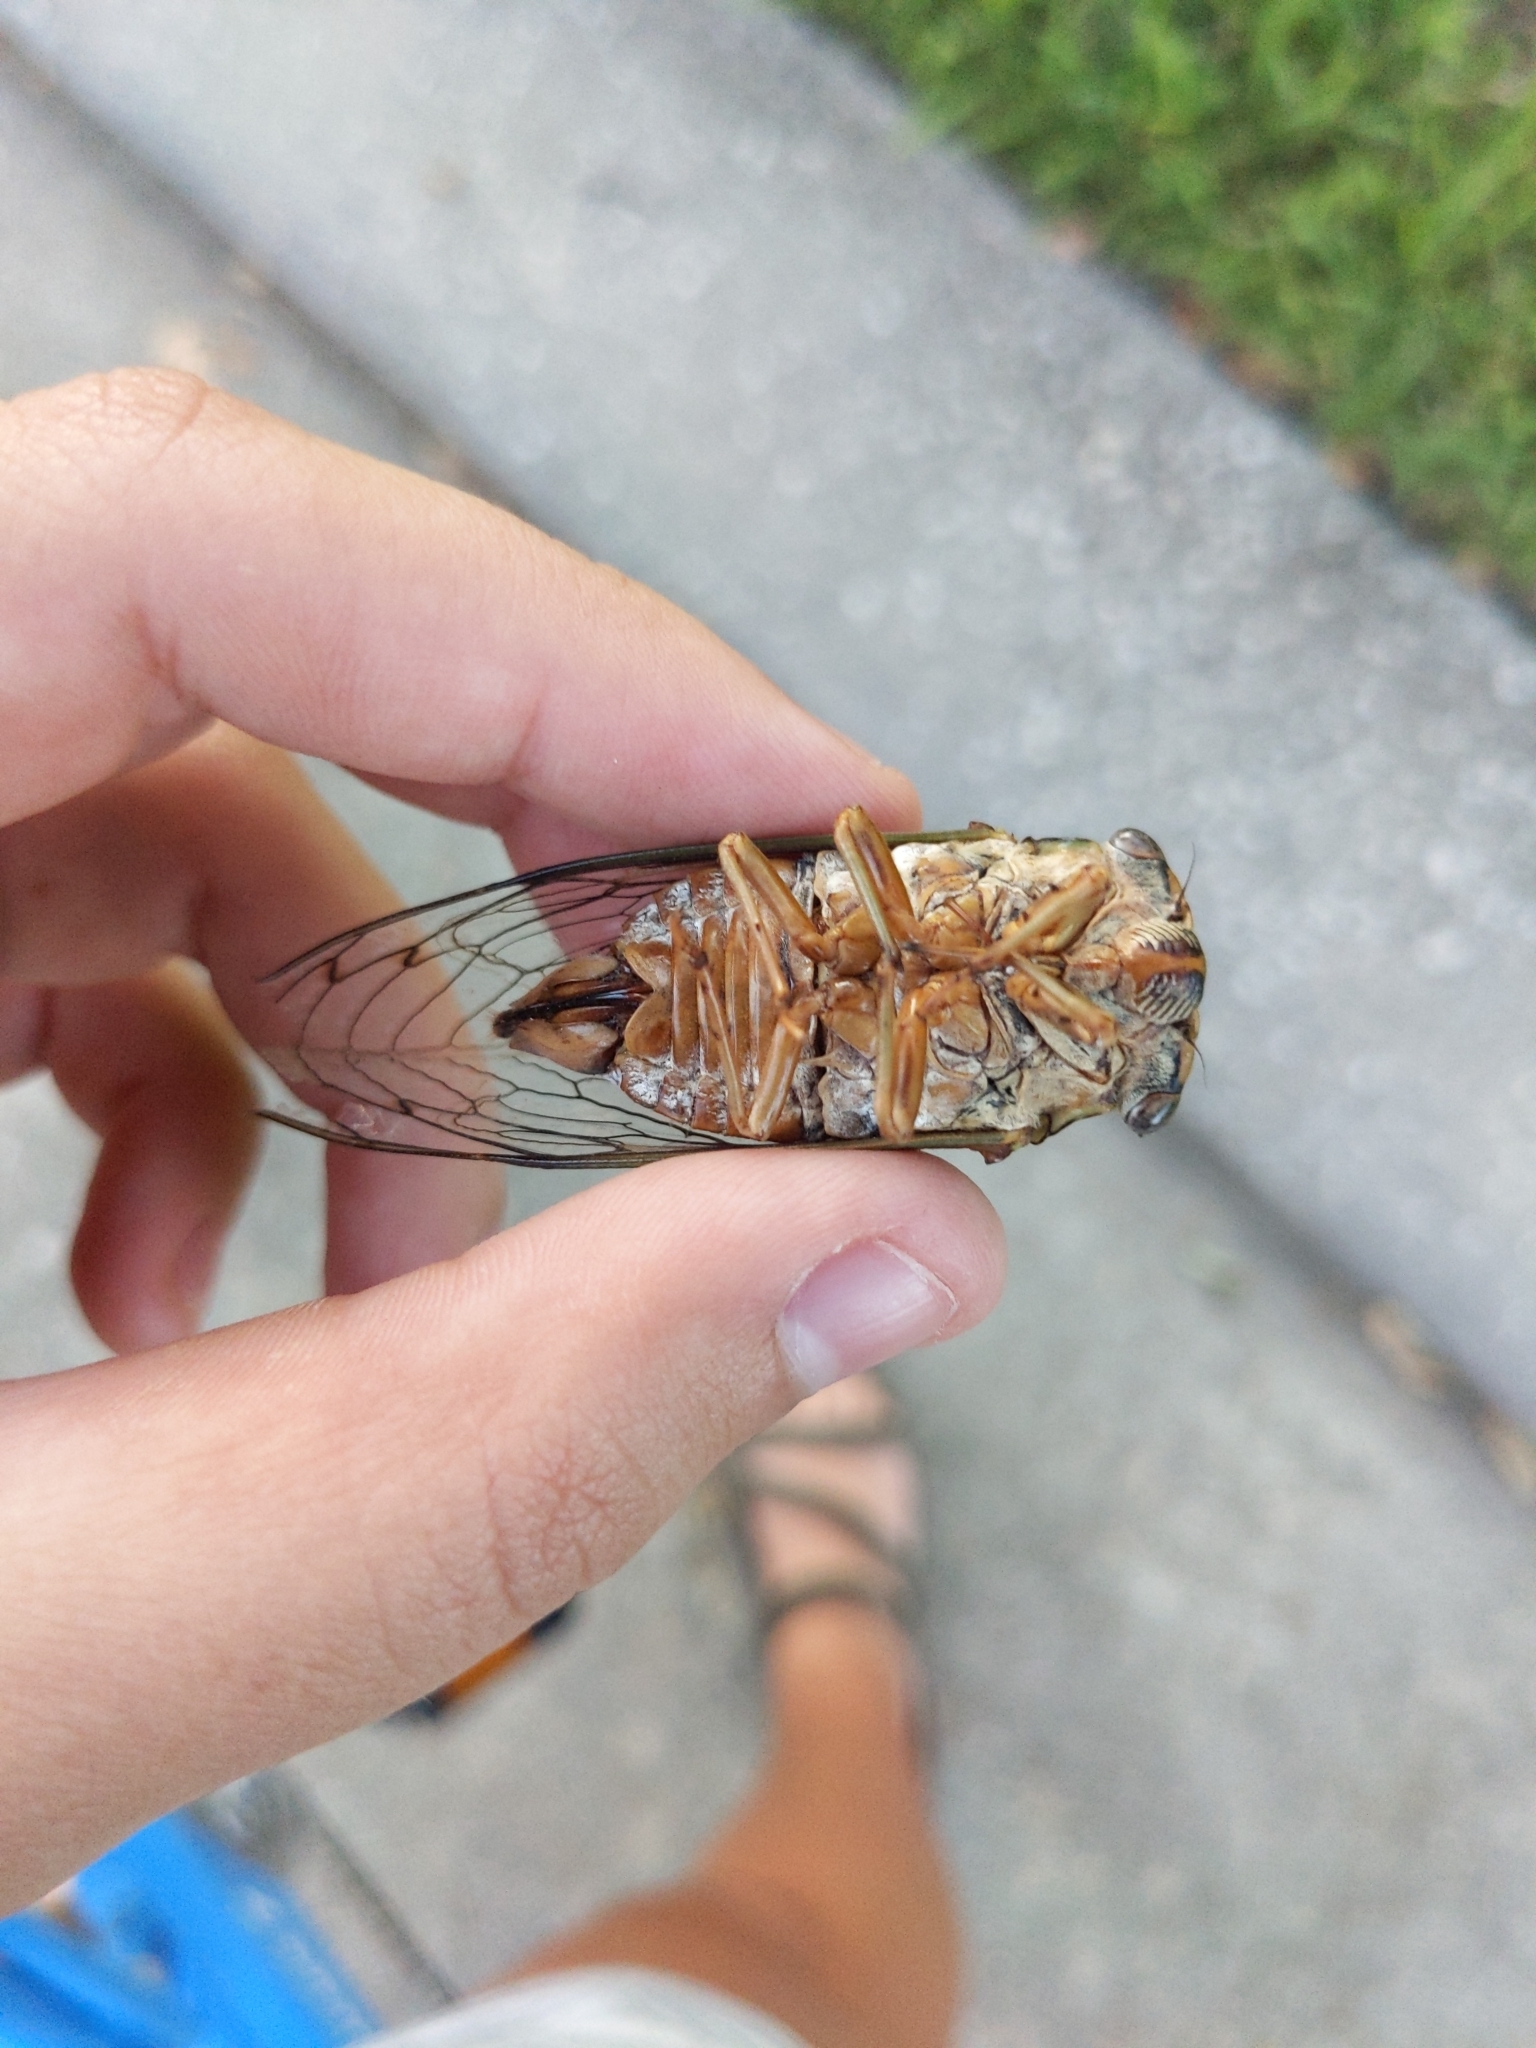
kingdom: Animalia
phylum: Arthropoda
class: Insecta
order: Hemiptera
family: Cicadidae
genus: Megatibicen
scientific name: Megatibicen resh
